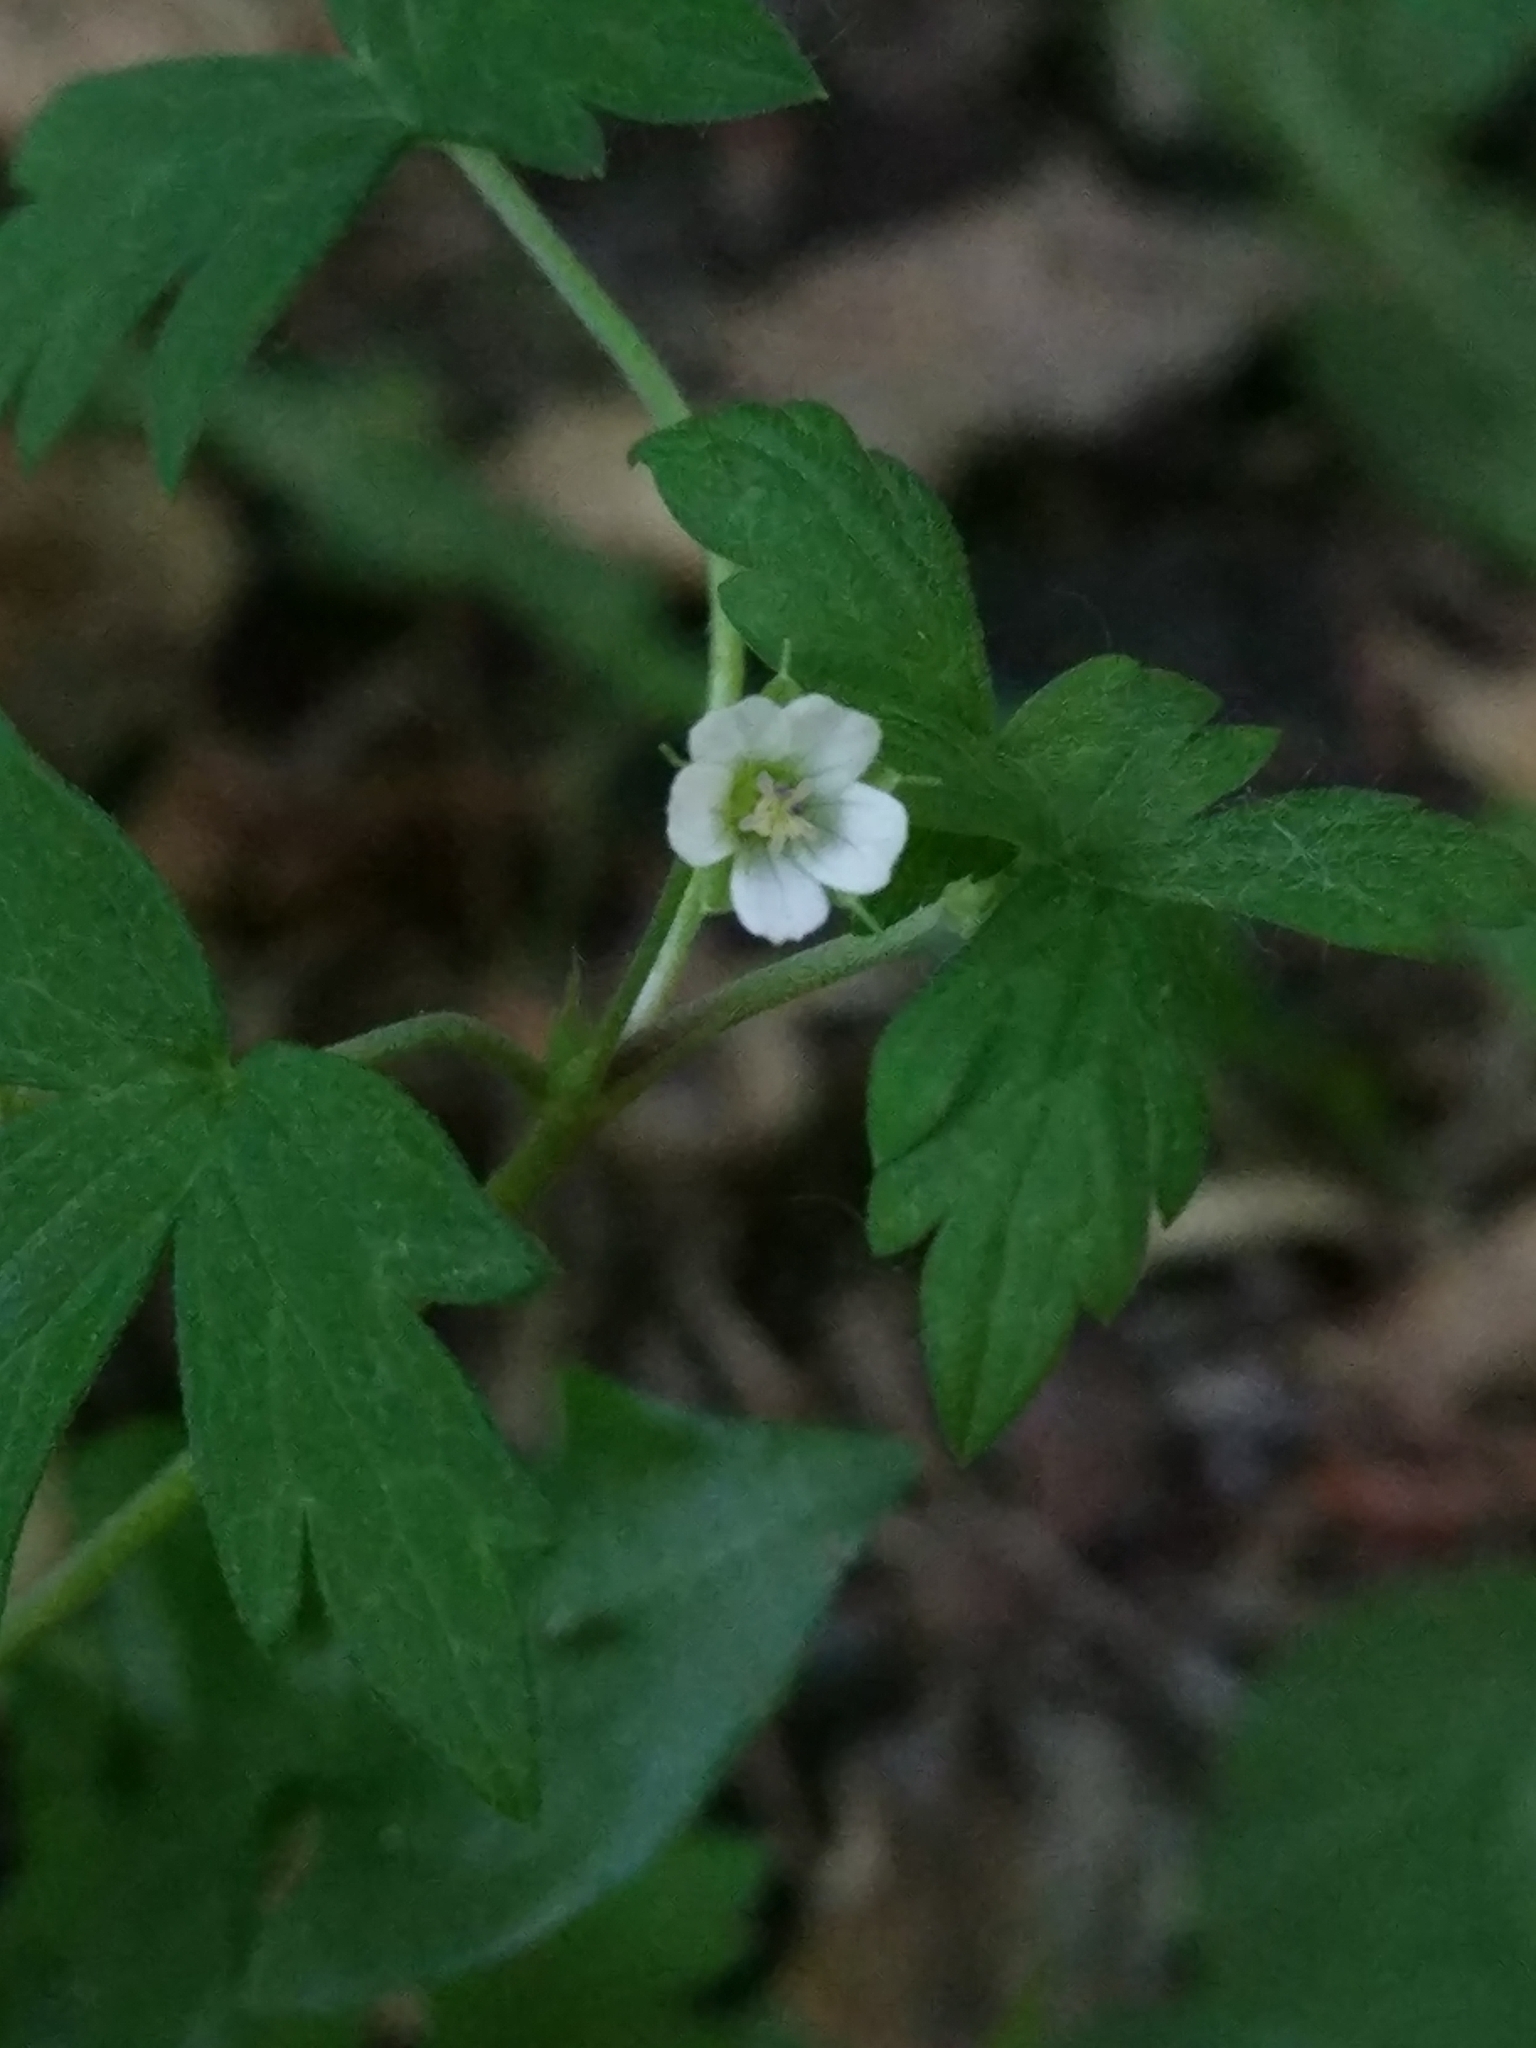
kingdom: Plantae
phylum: Tracheophyta
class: Magnoliopsida
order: Geraniales
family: Geraniaceae
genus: Geranium
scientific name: Geranium sibiricum
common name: Siberian crane's-bill
